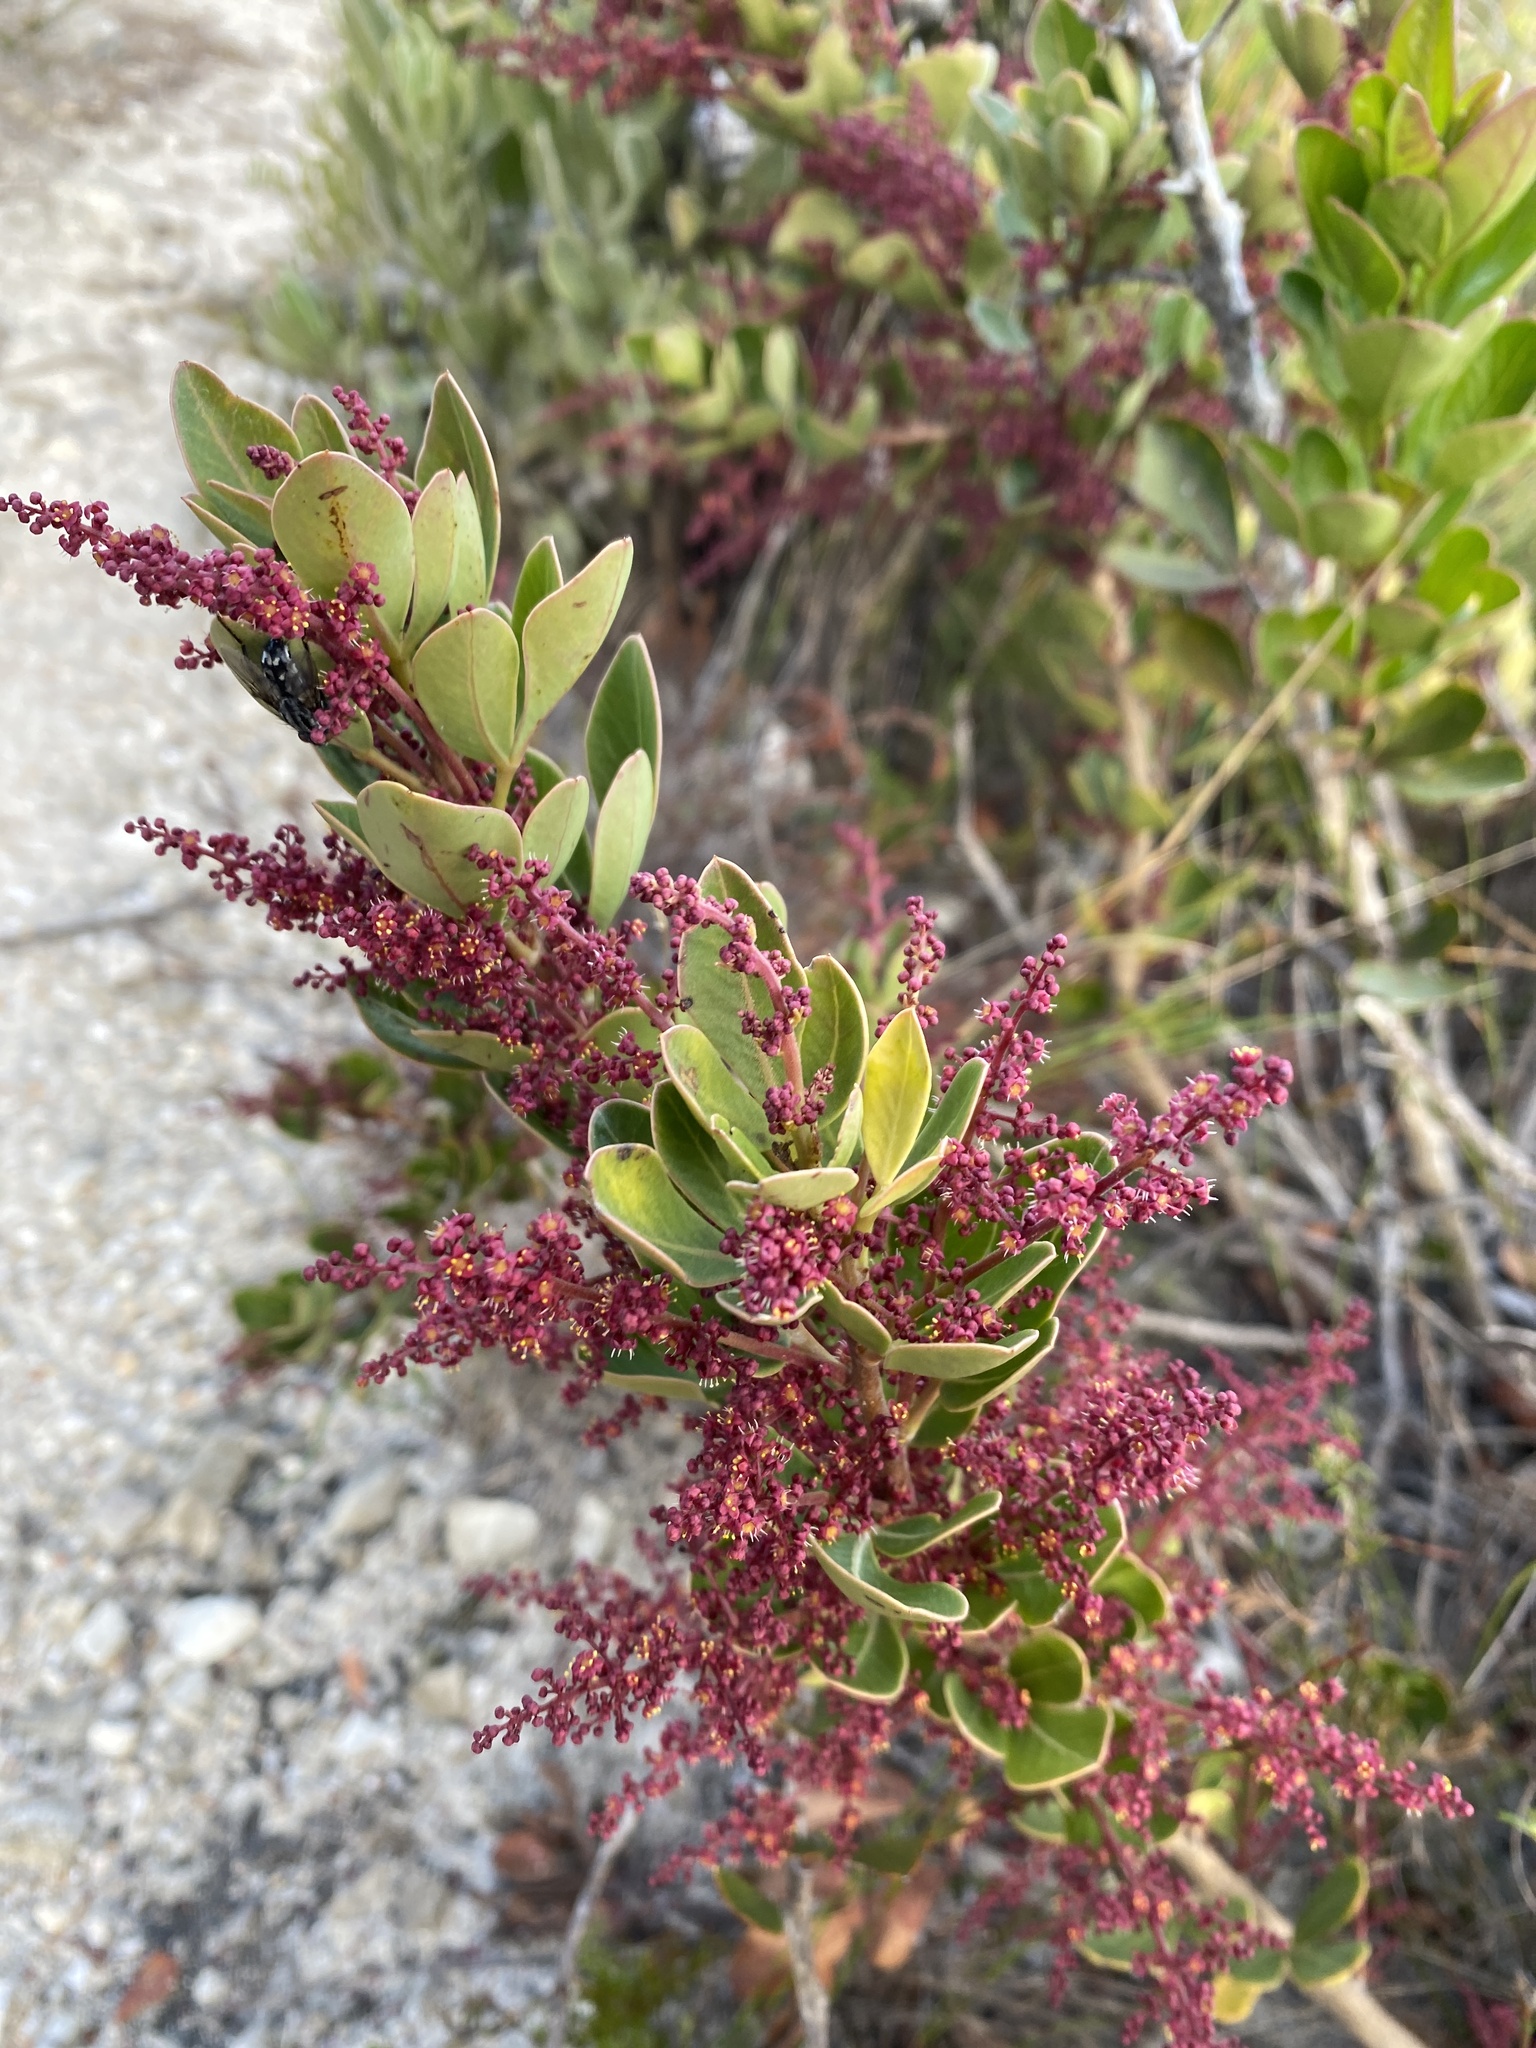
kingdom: Plantae
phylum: Tracheophyta
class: Magnoliopsida
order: Sapindales
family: Anacardiaceae
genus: Searsia
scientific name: Searsia scytophylla
